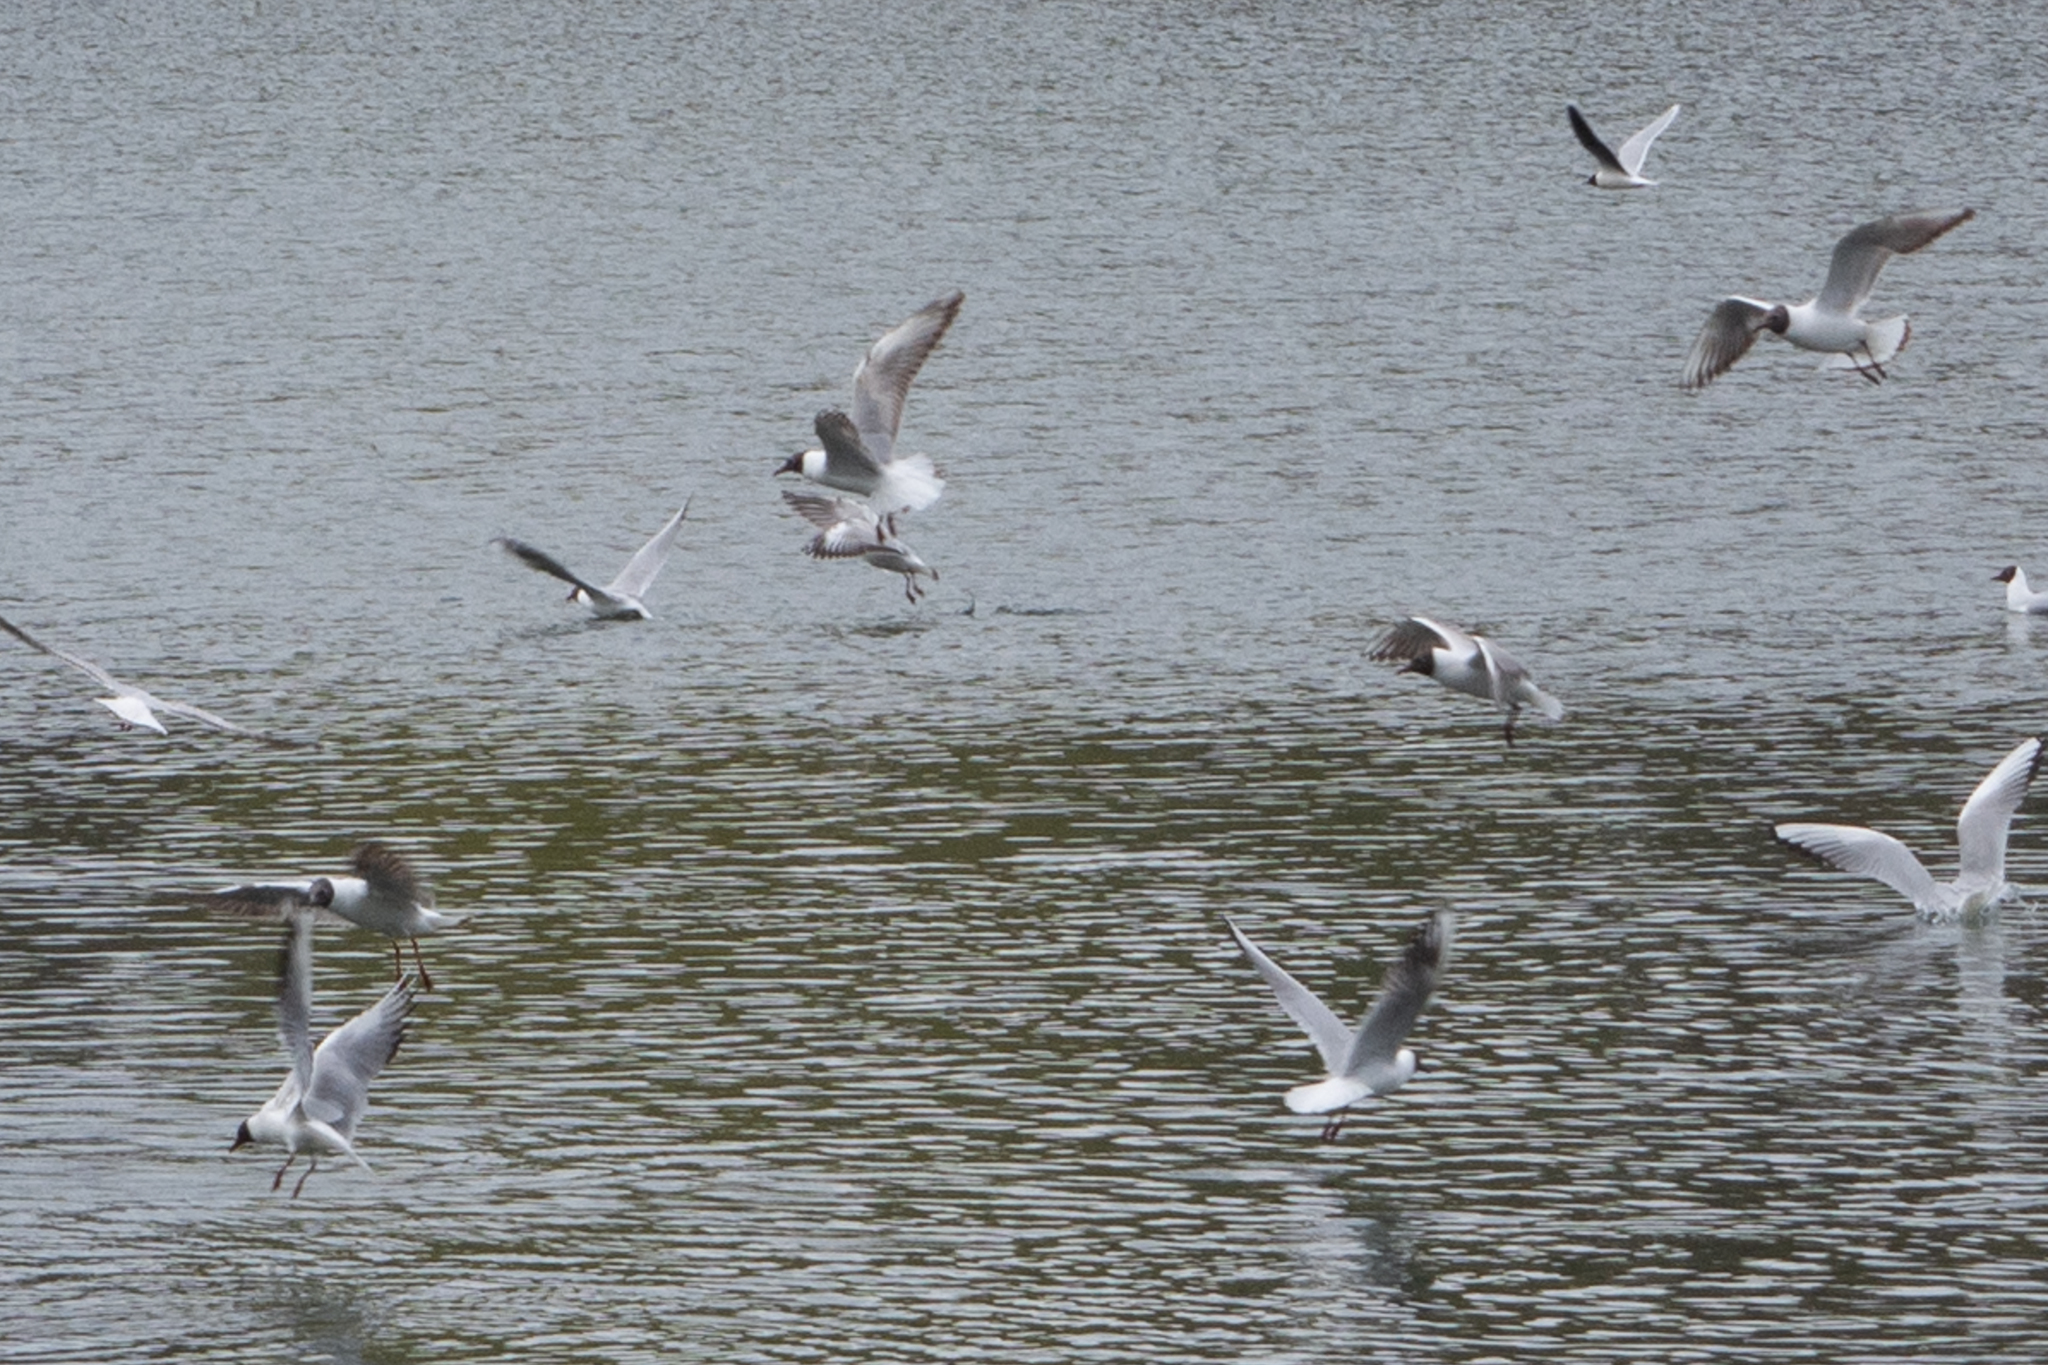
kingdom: Animalia
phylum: Chordata
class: Aves
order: Charadriiformes
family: Laridae
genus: Chroicocephalus
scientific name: Chroicocephalus ridibundus
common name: Black-headed gull
